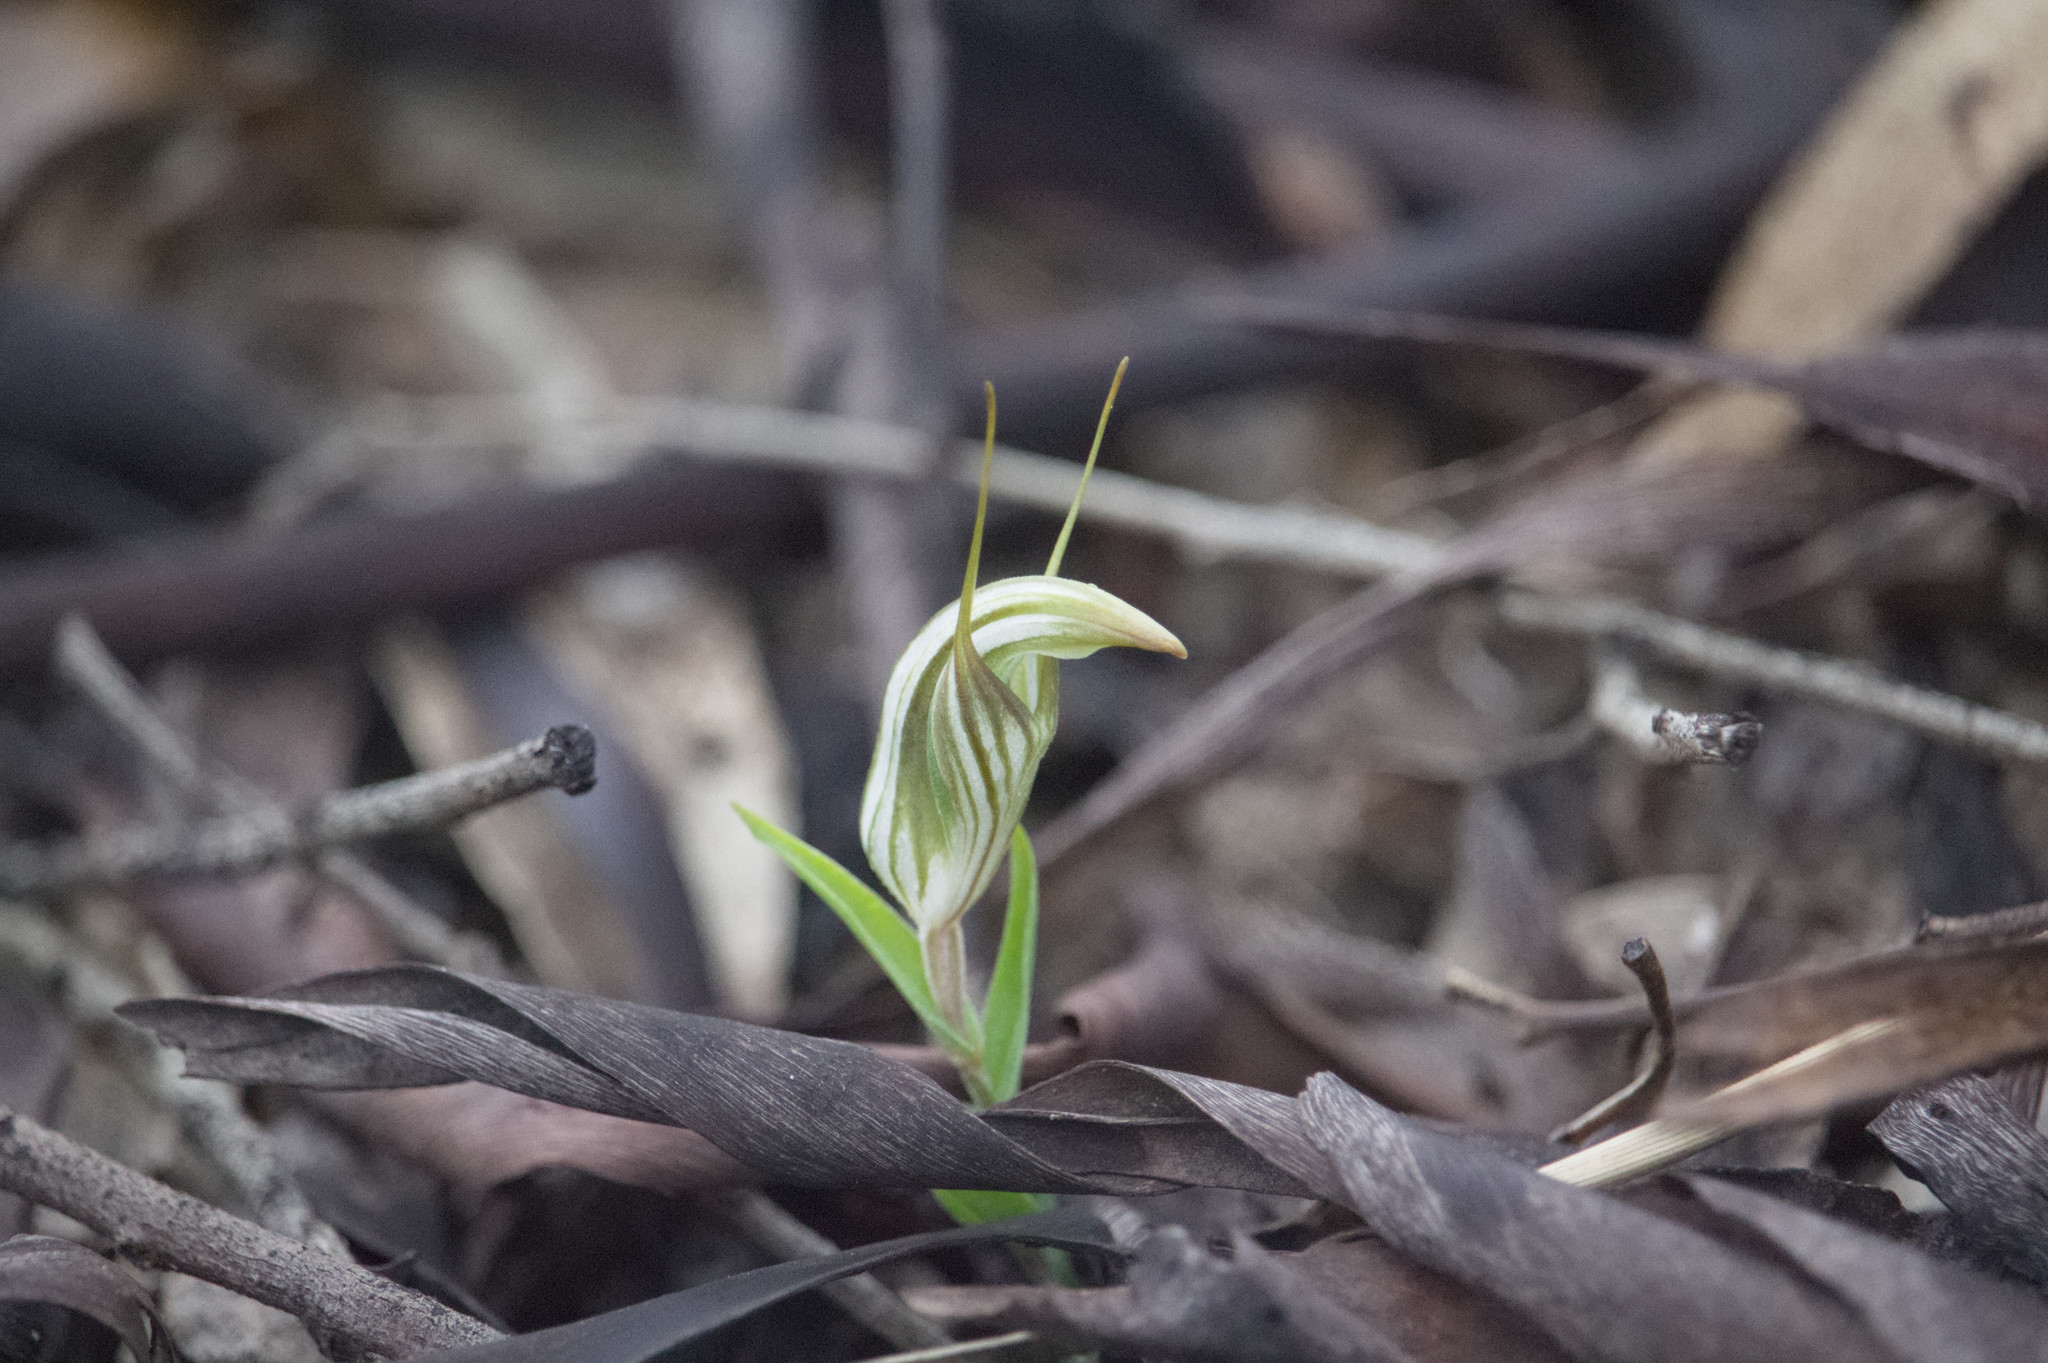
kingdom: Plantae
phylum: Tracheophyta
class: Liliopsida
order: Asparagales
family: Orchidaceae
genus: Pterostylis
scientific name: Pterostylis scabra
